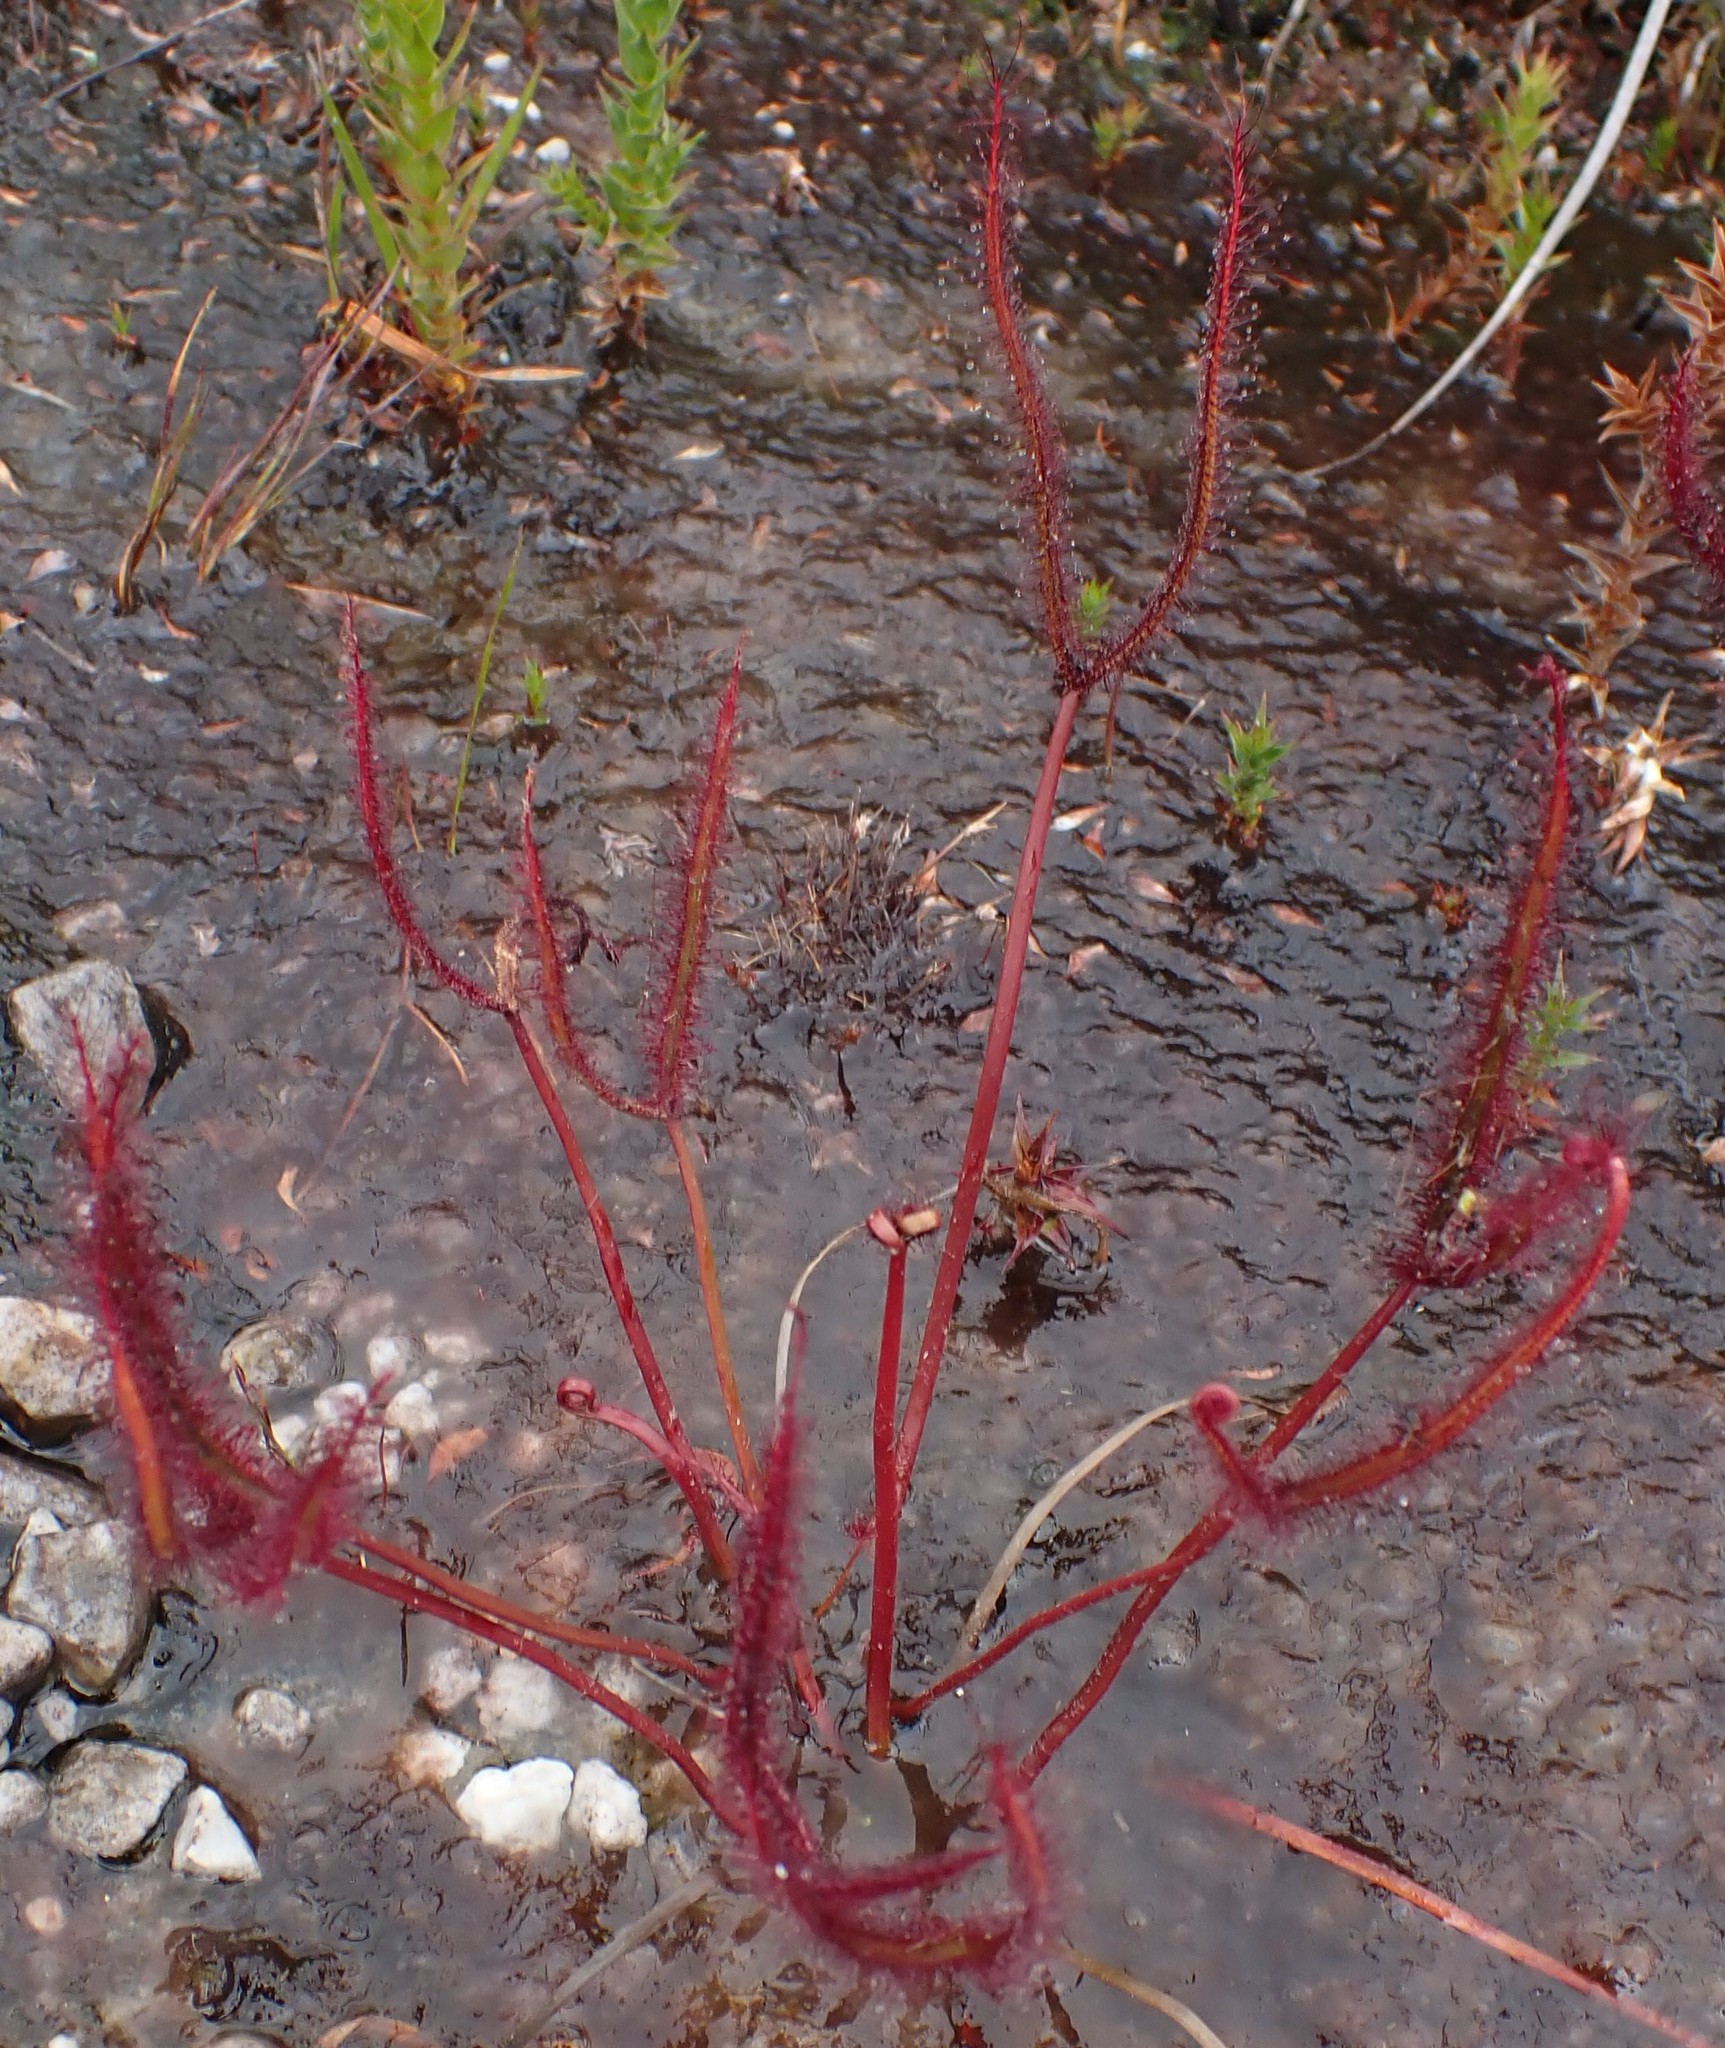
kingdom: Plantae
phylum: Tracheophyta
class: Magnoliopsida
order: Caryophyllales
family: Droseraceae
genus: Drosera
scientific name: Drosera binata
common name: Forked sundew
